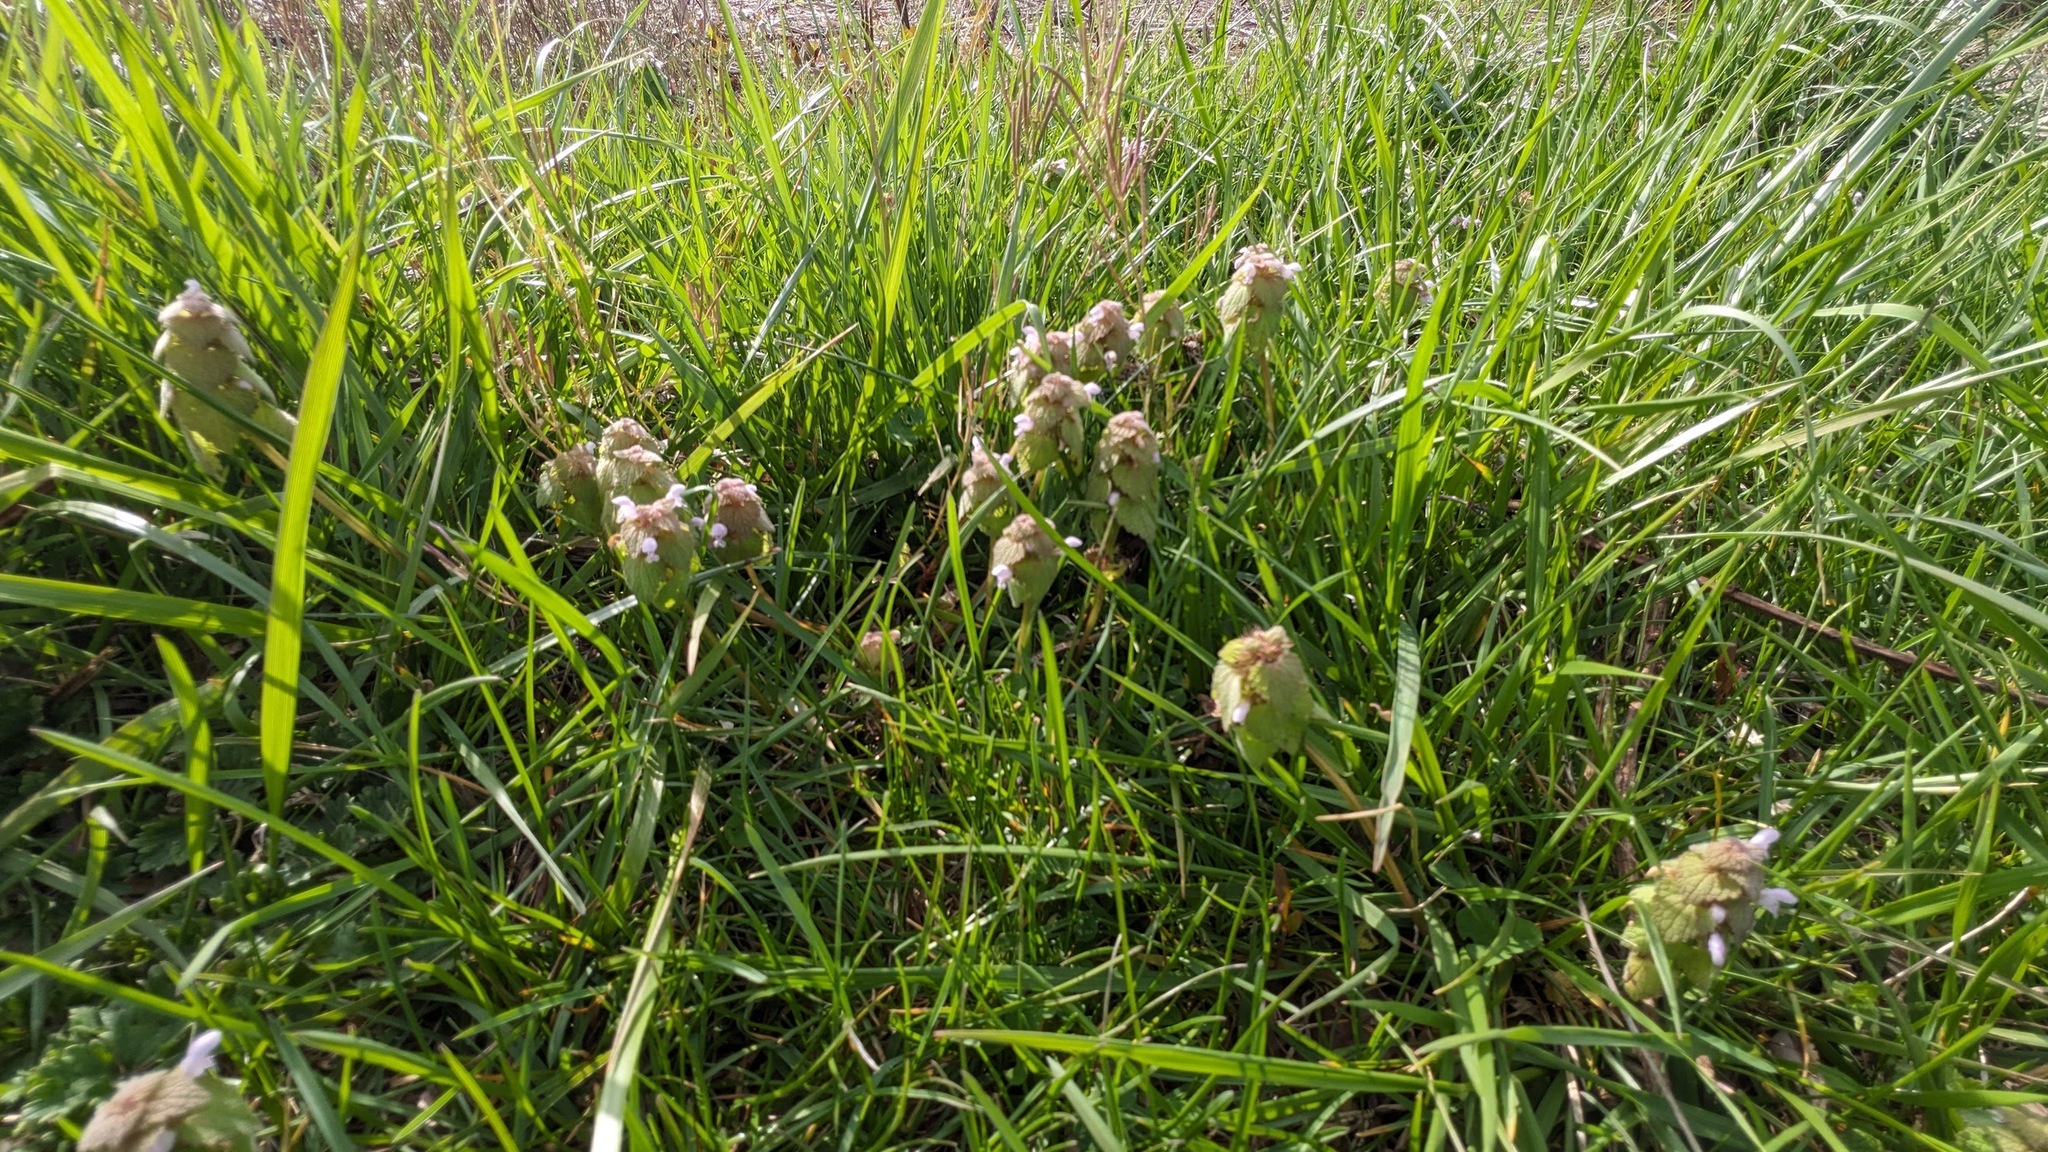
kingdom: Plantae
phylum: Tracheophyta
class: Magnoliopsida
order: Lamiales
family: Lamiaceae
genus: Lamium
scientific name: Lamium purpureum
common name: Red dead-nettle
